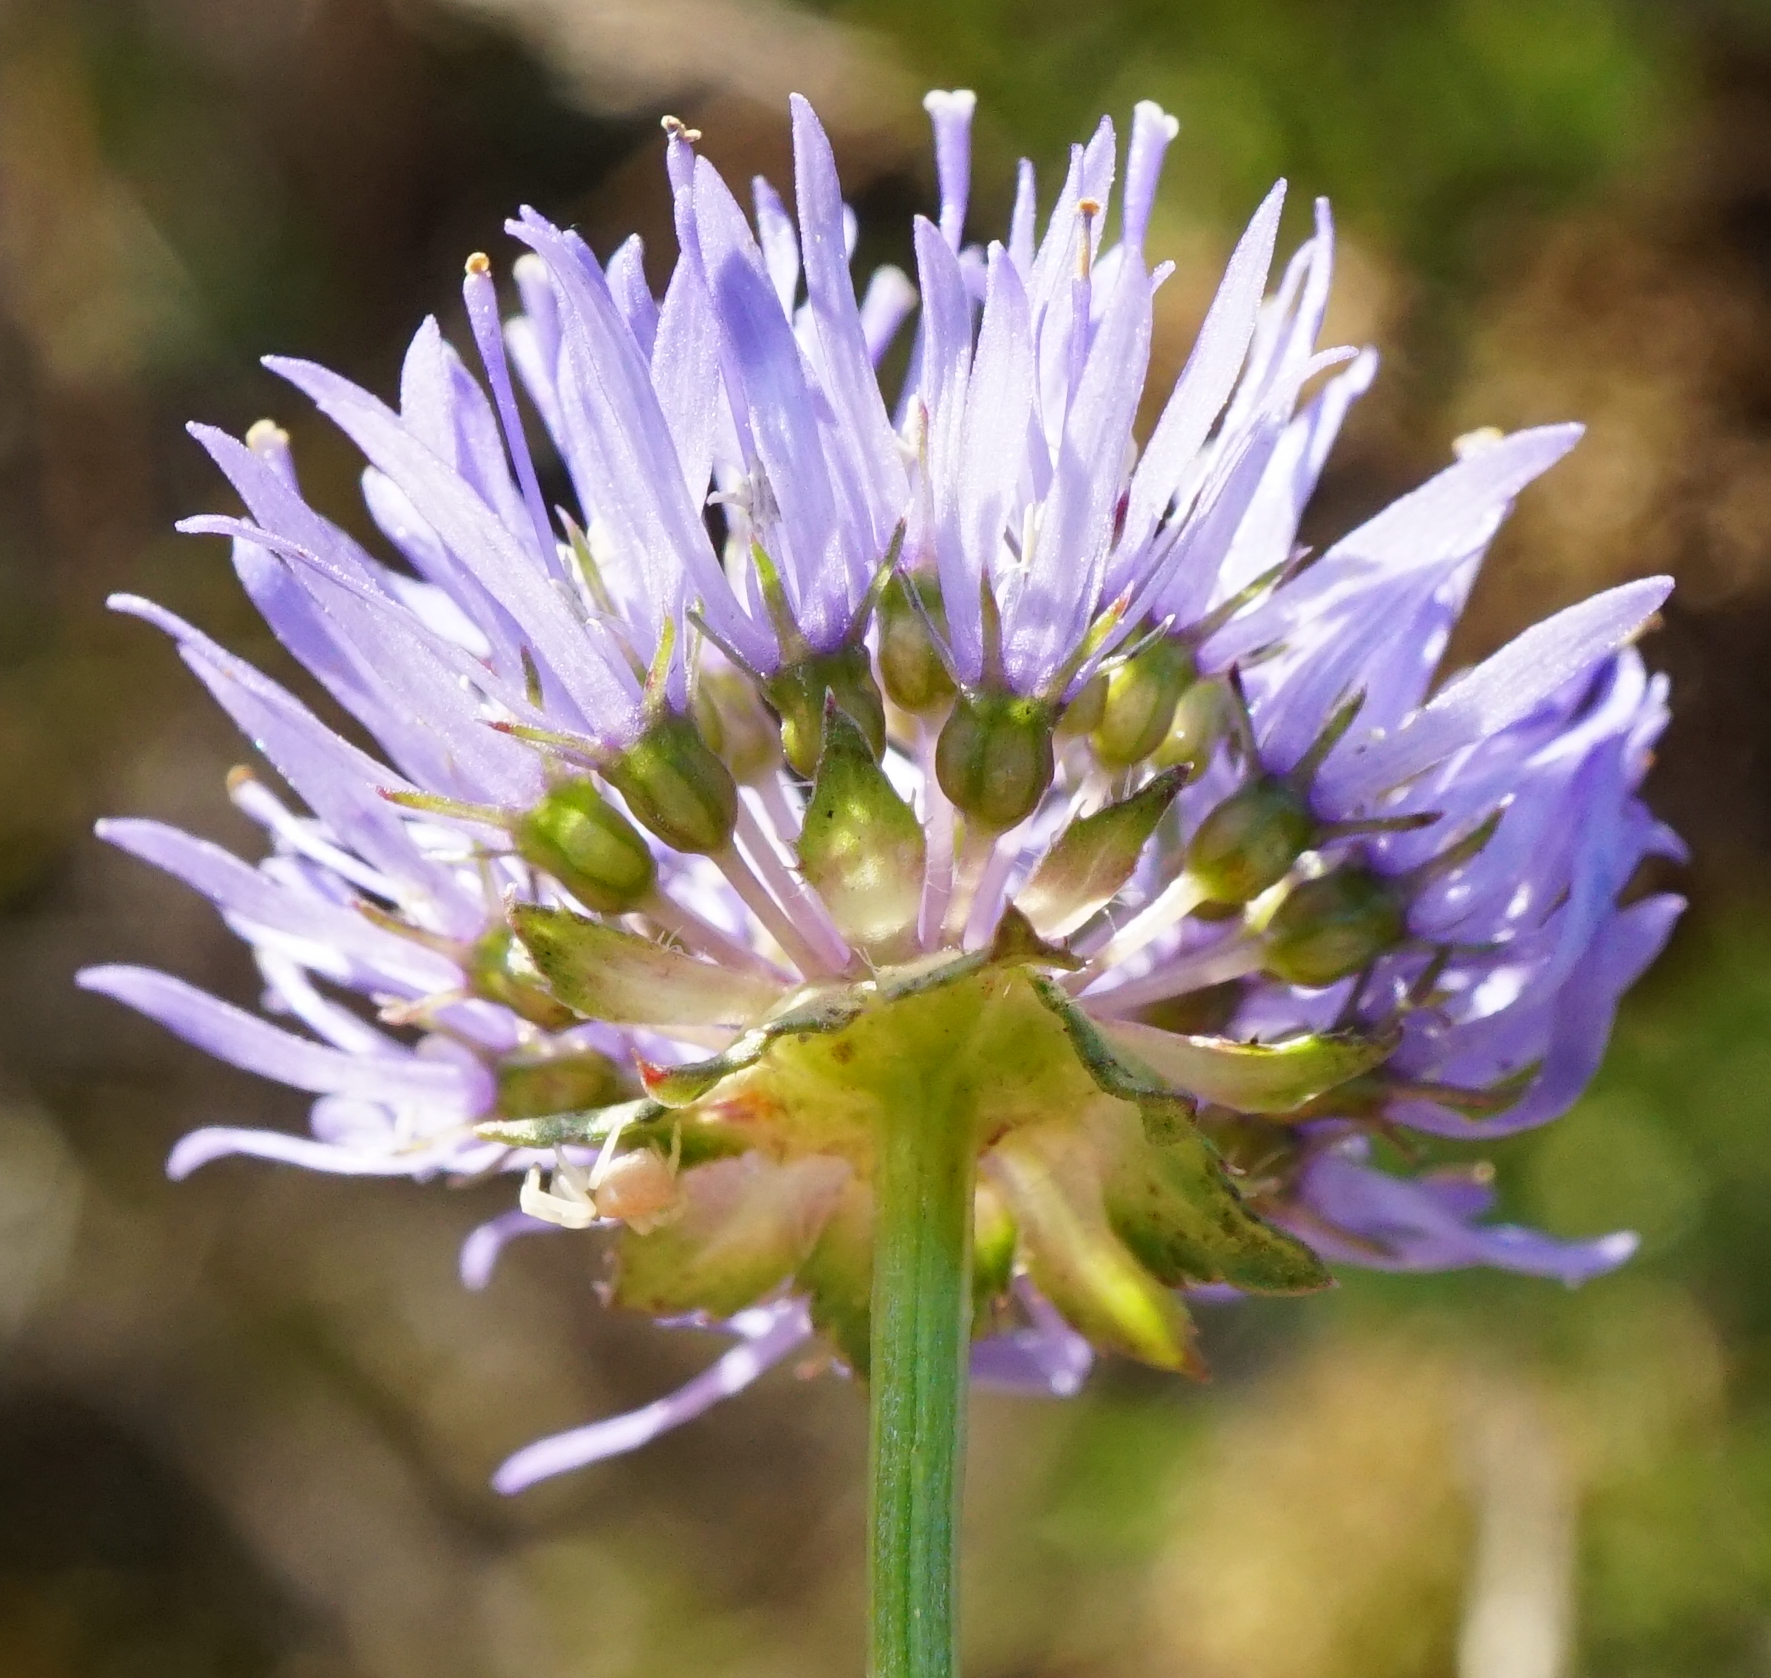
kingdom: Plantae
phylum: Tracheophyta
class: Magnoliopsida
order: Asterales
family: Campanulaceae
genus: Jasione
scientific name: Jasione montana
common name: Sheep's-bit
